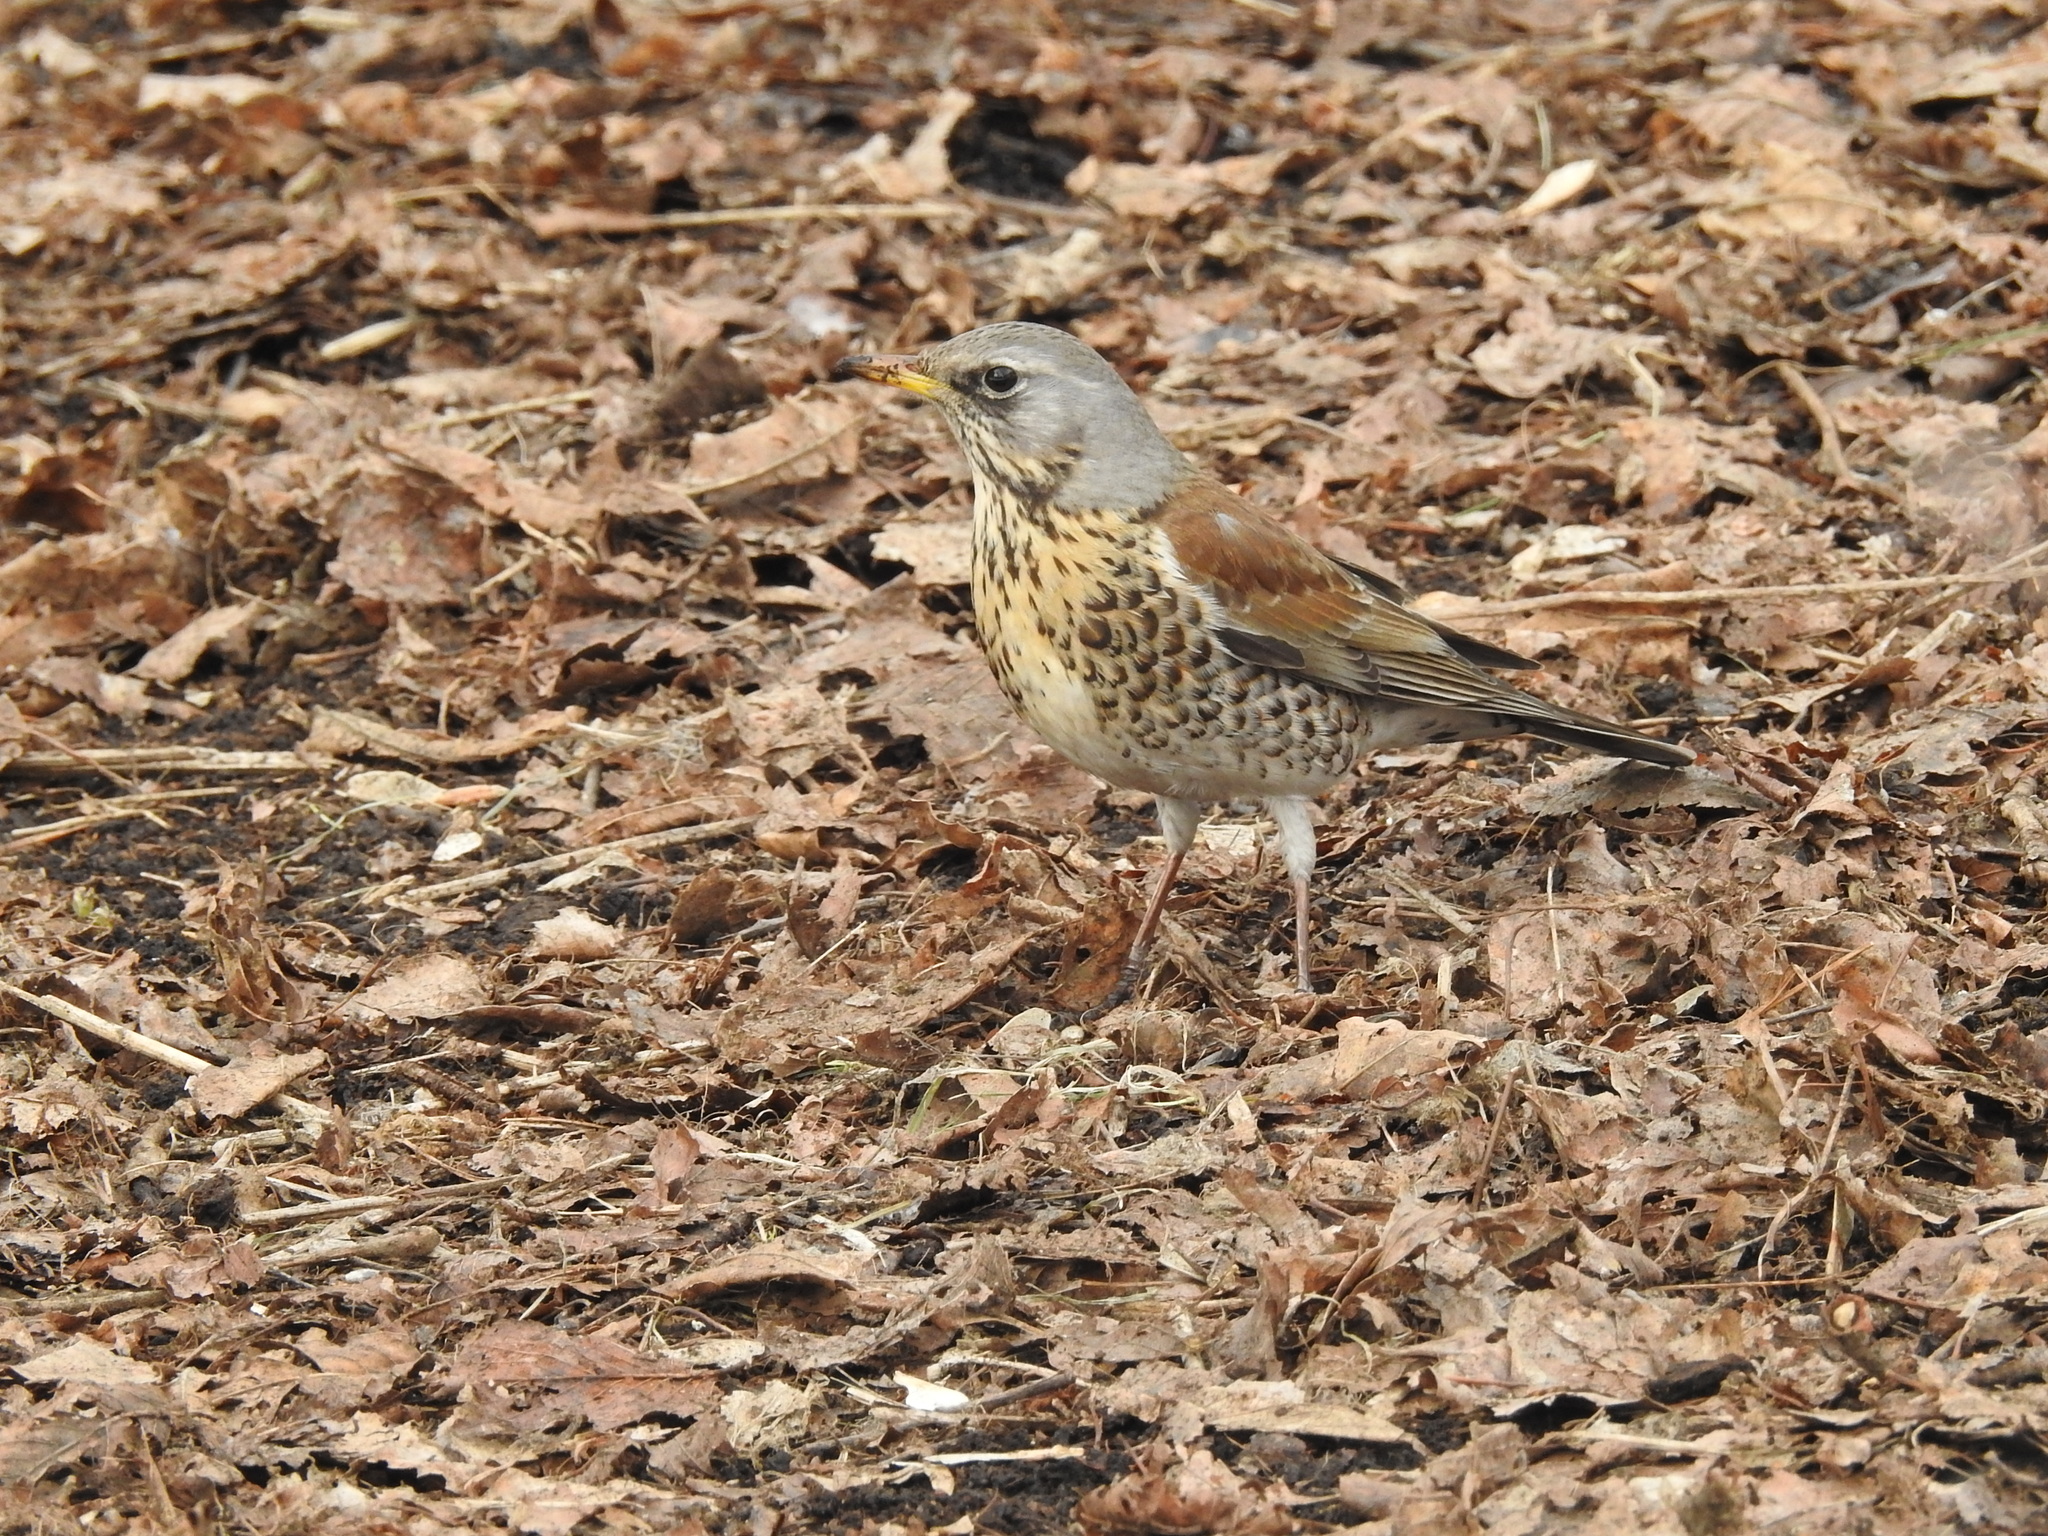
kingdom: Animalia
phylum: Chordata
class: Aves
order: Passeriformes
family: Turdidae
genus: Turdus
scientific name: Turdus pilaris
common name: Fieldfare
